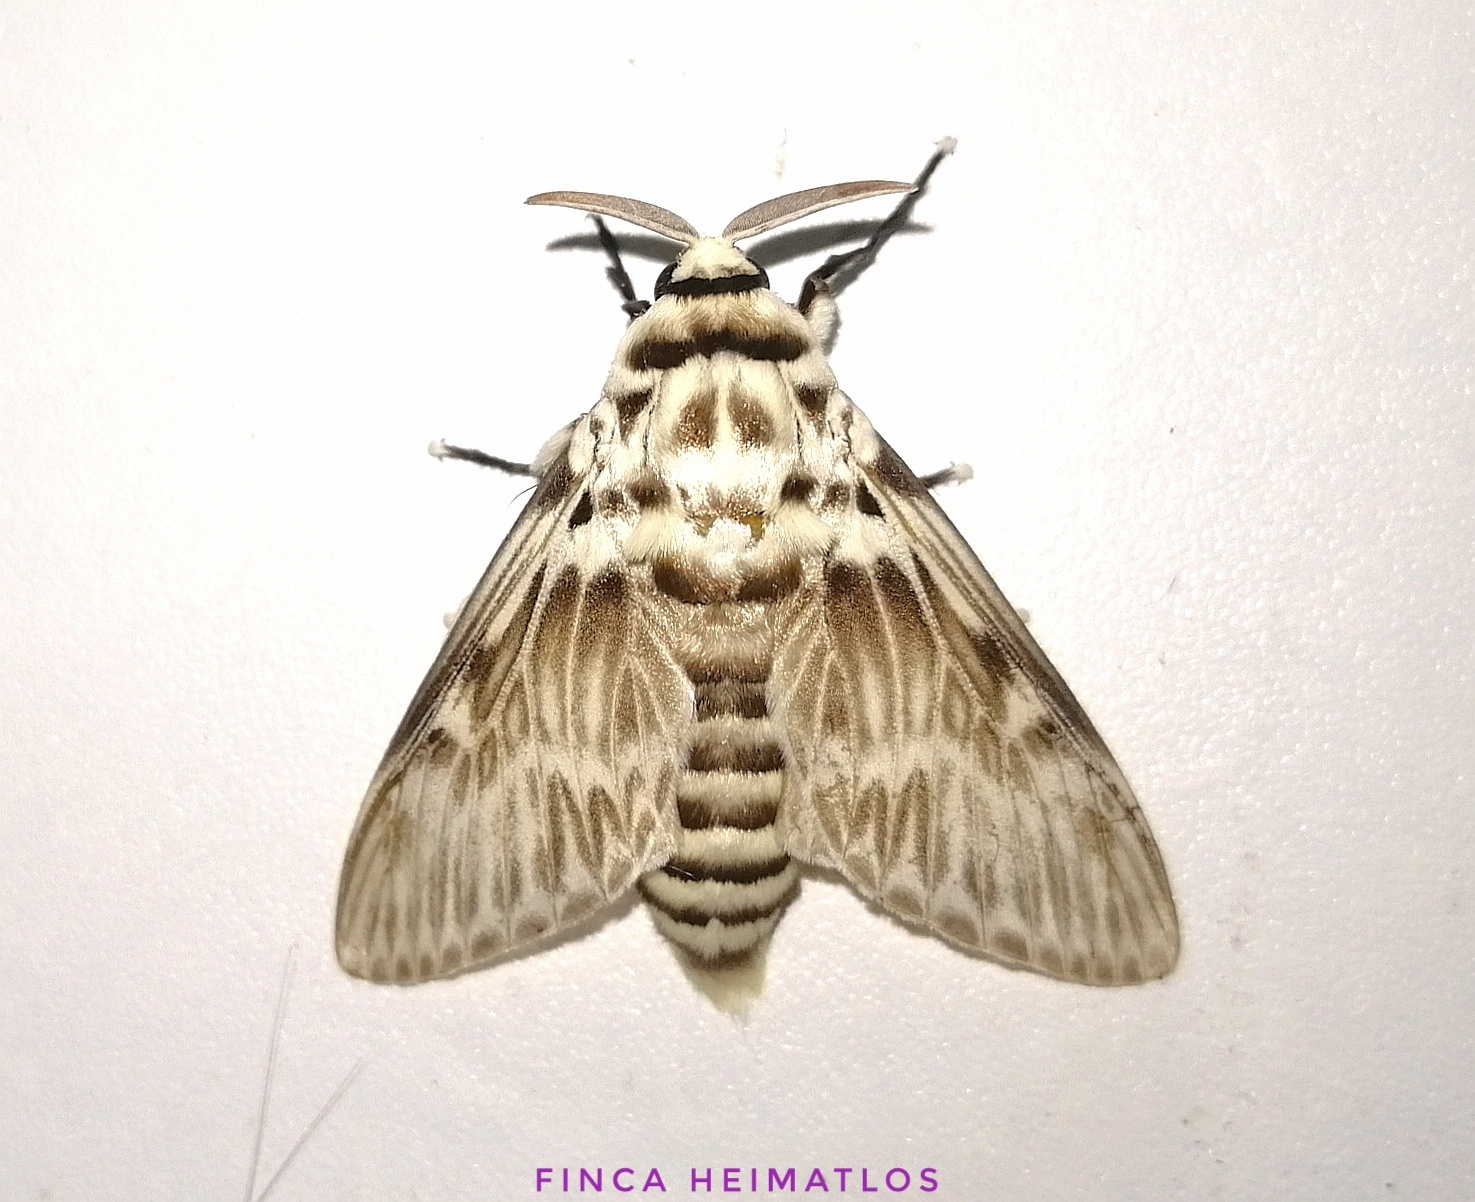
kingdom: Animalia
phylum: Arthropoda
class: Insecta
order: Lepidoptera
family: Megalopygidae
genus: Podalia
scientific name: Podalia orsilochus
